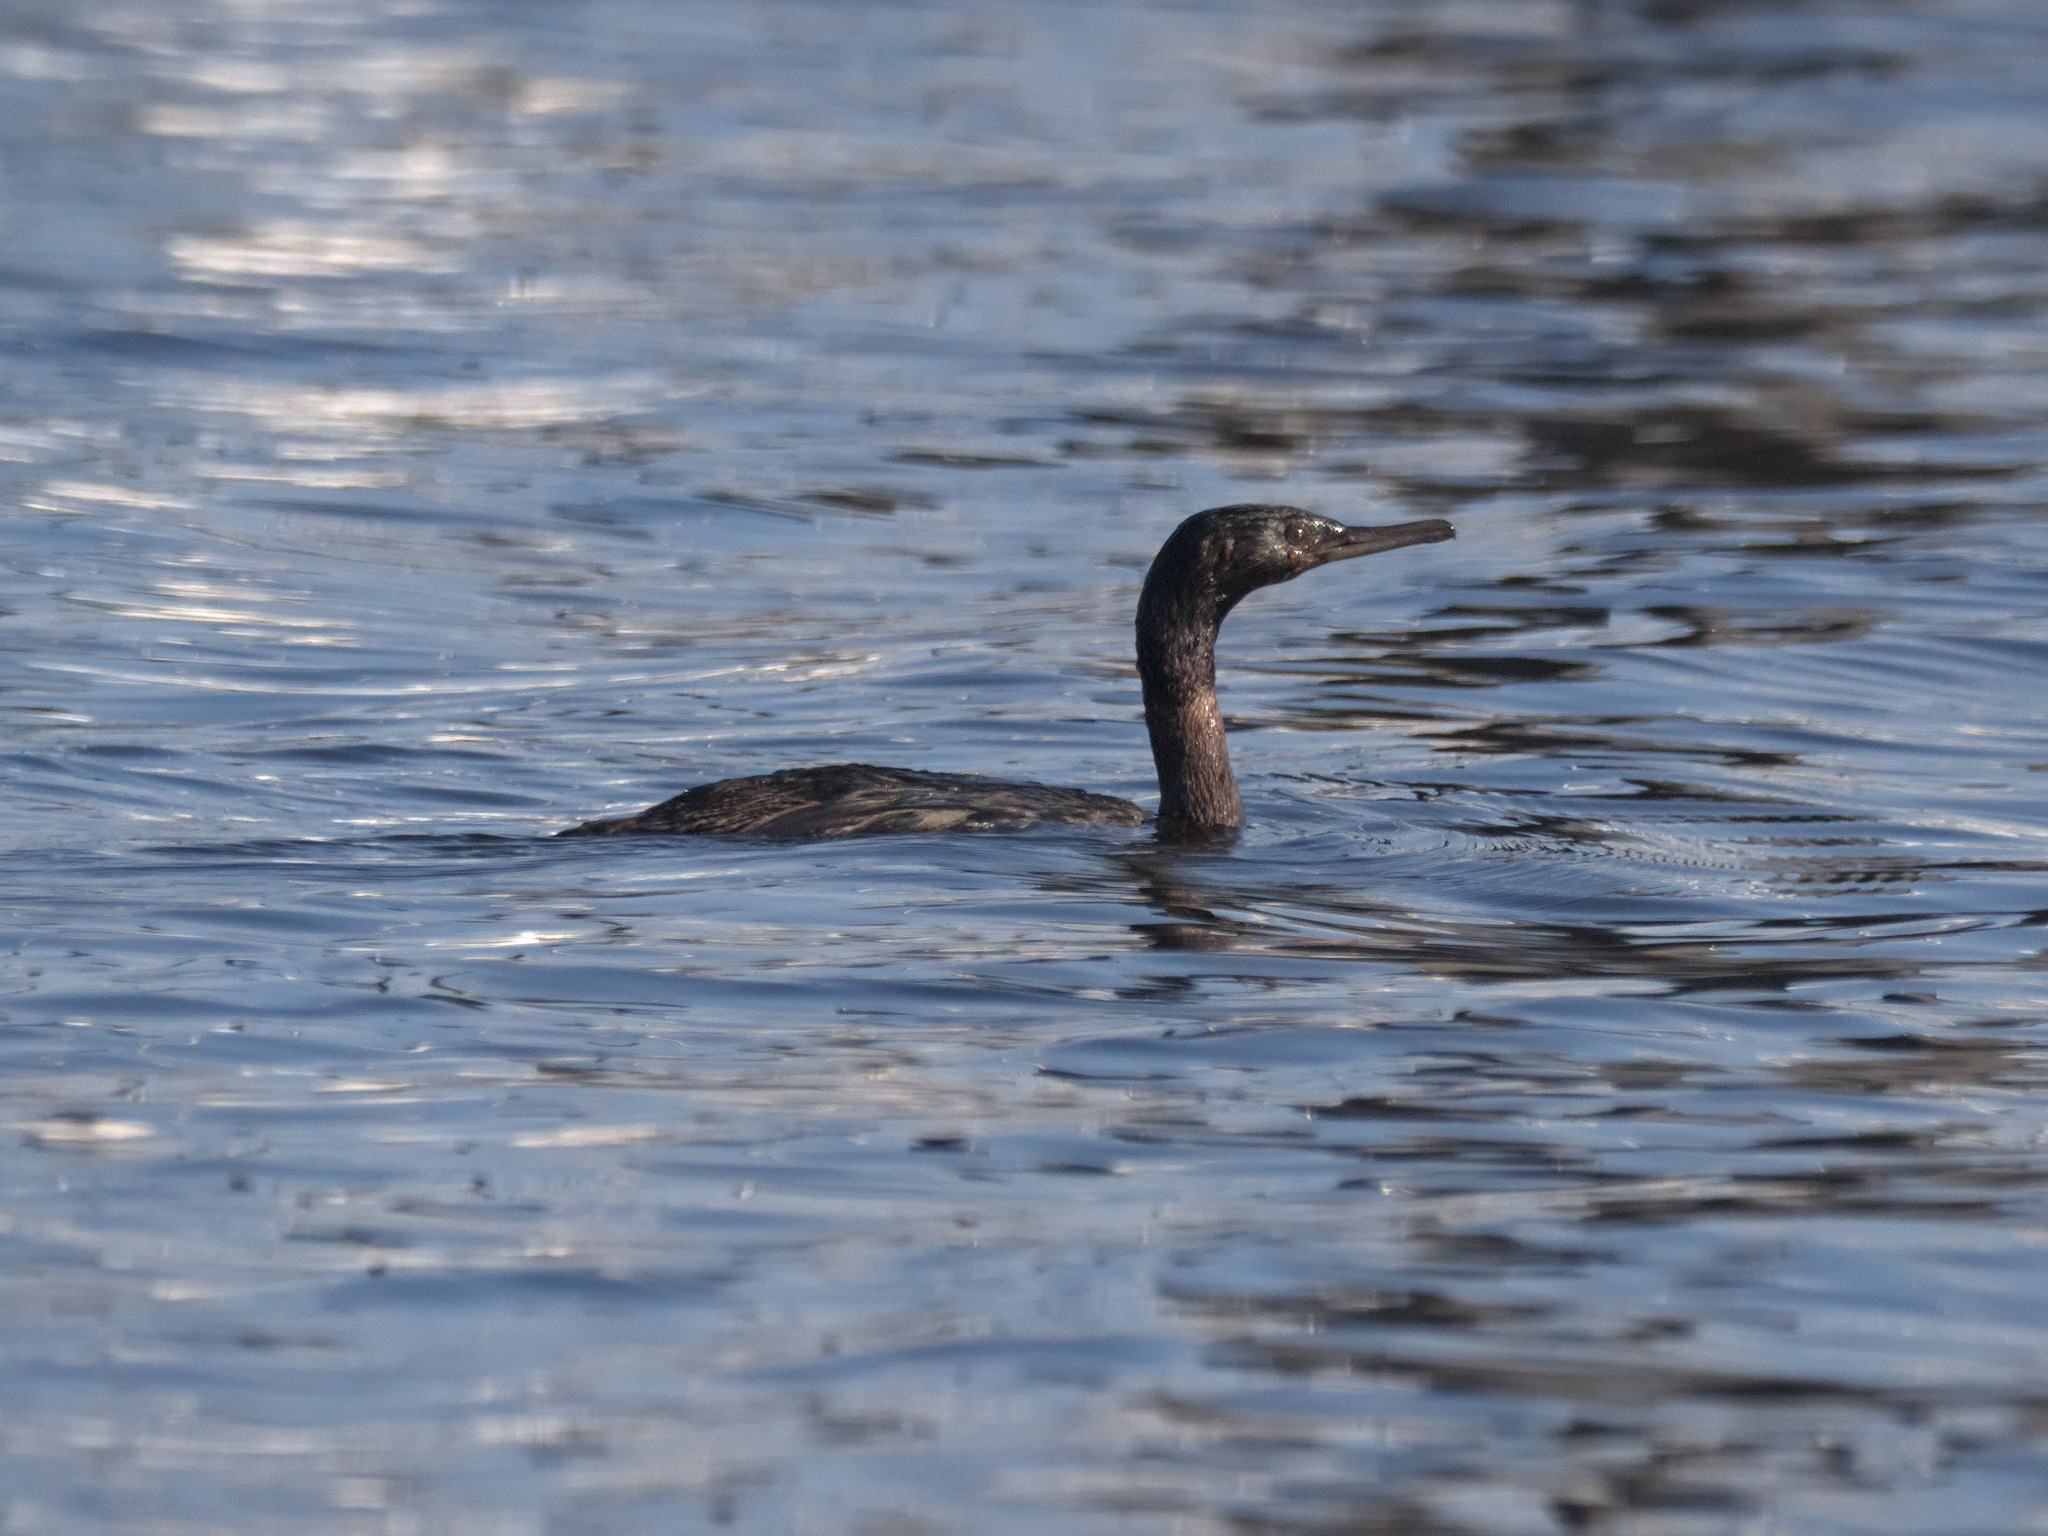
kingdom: Animalia
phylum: Chordata
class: Aves
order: Suliformes
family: Phalacrocoracidae
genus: Phalacrocorax
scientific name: Phalacrocorax pelagicus
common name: Pelagic cormorant
